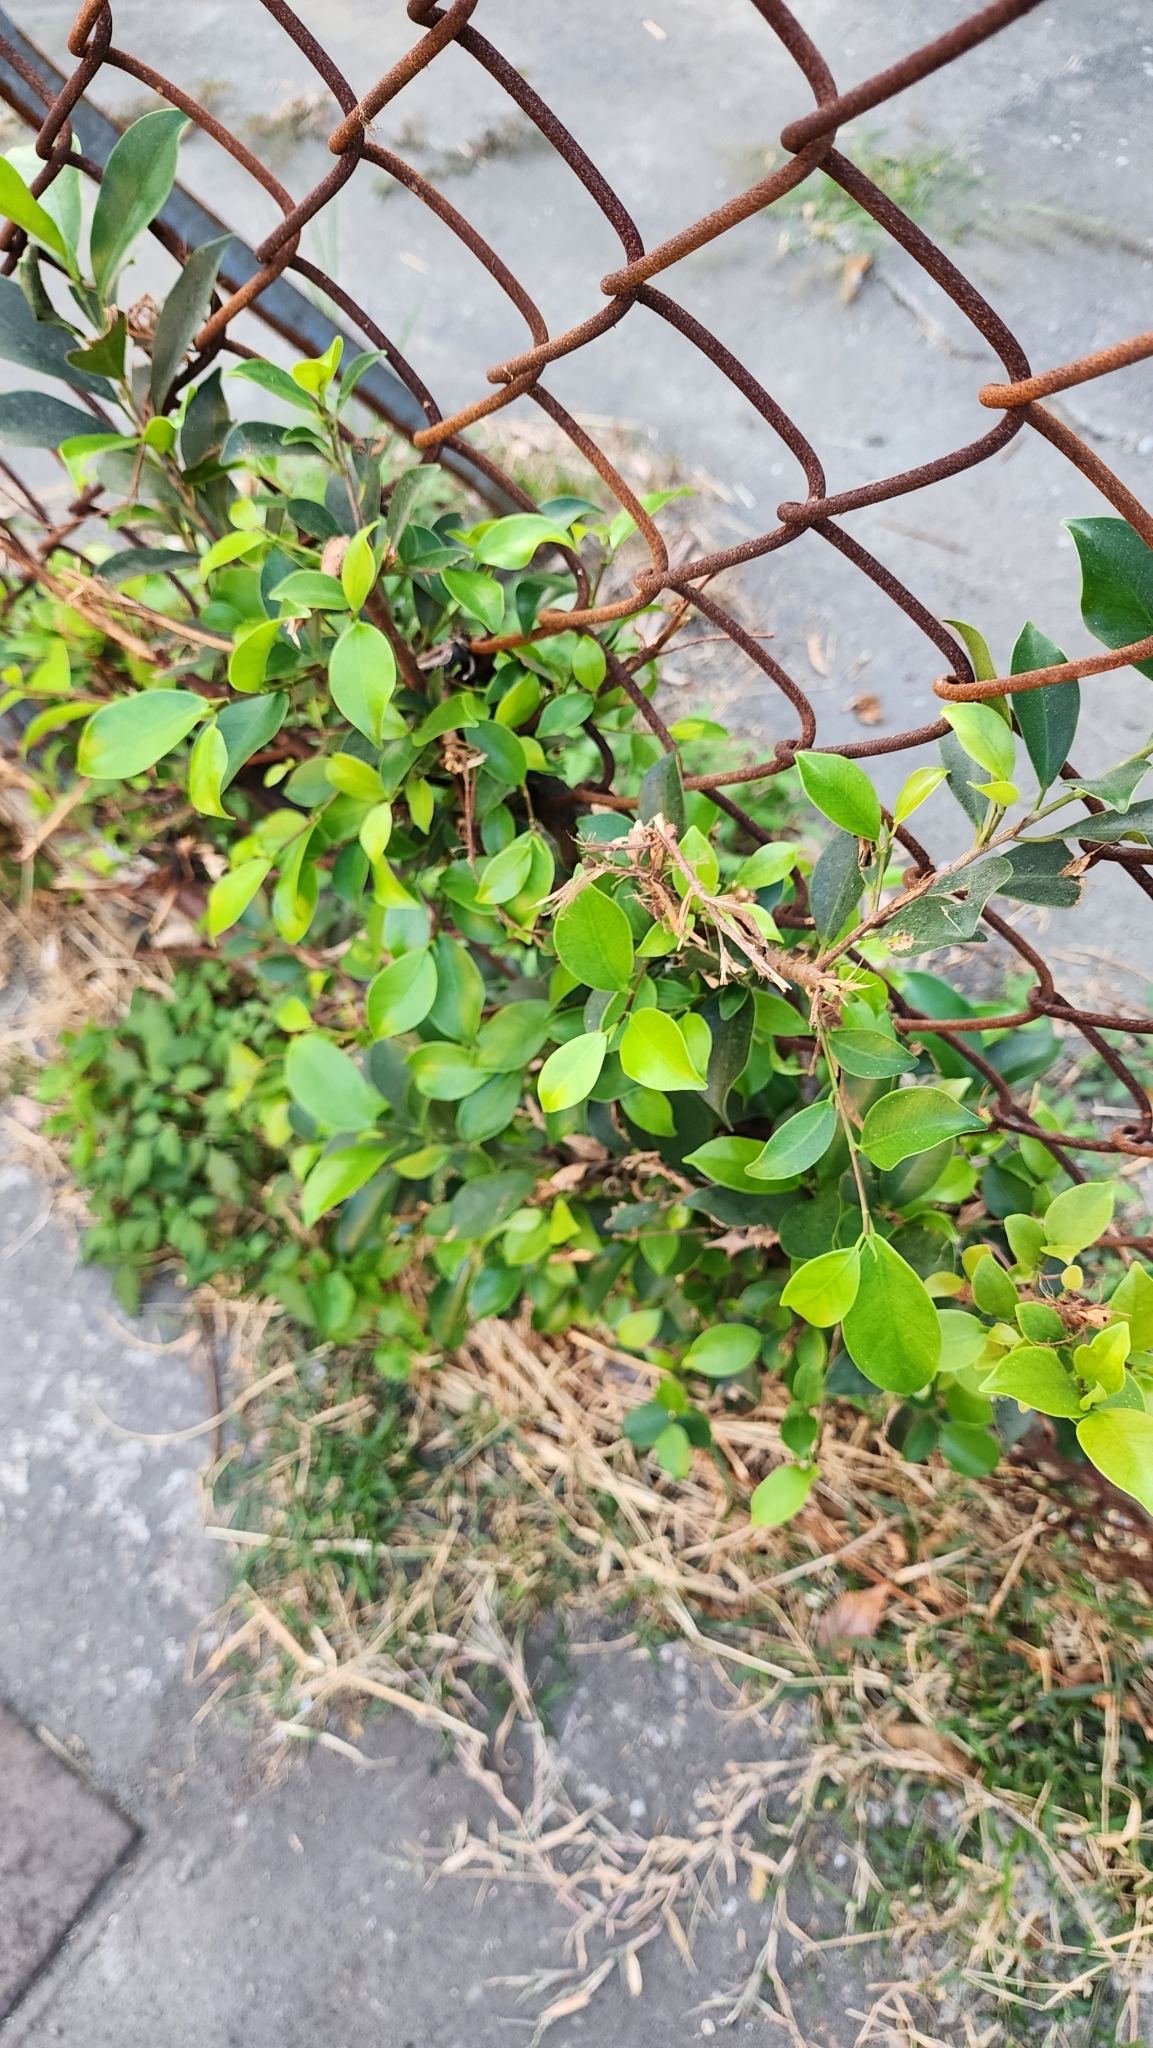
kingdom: Plantae
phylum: Tracheophyta
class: Magnoliopsida
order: Rosales
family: Moraceae
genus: Ficus
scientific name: Ficus microcarpa
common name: Chinese banyan
